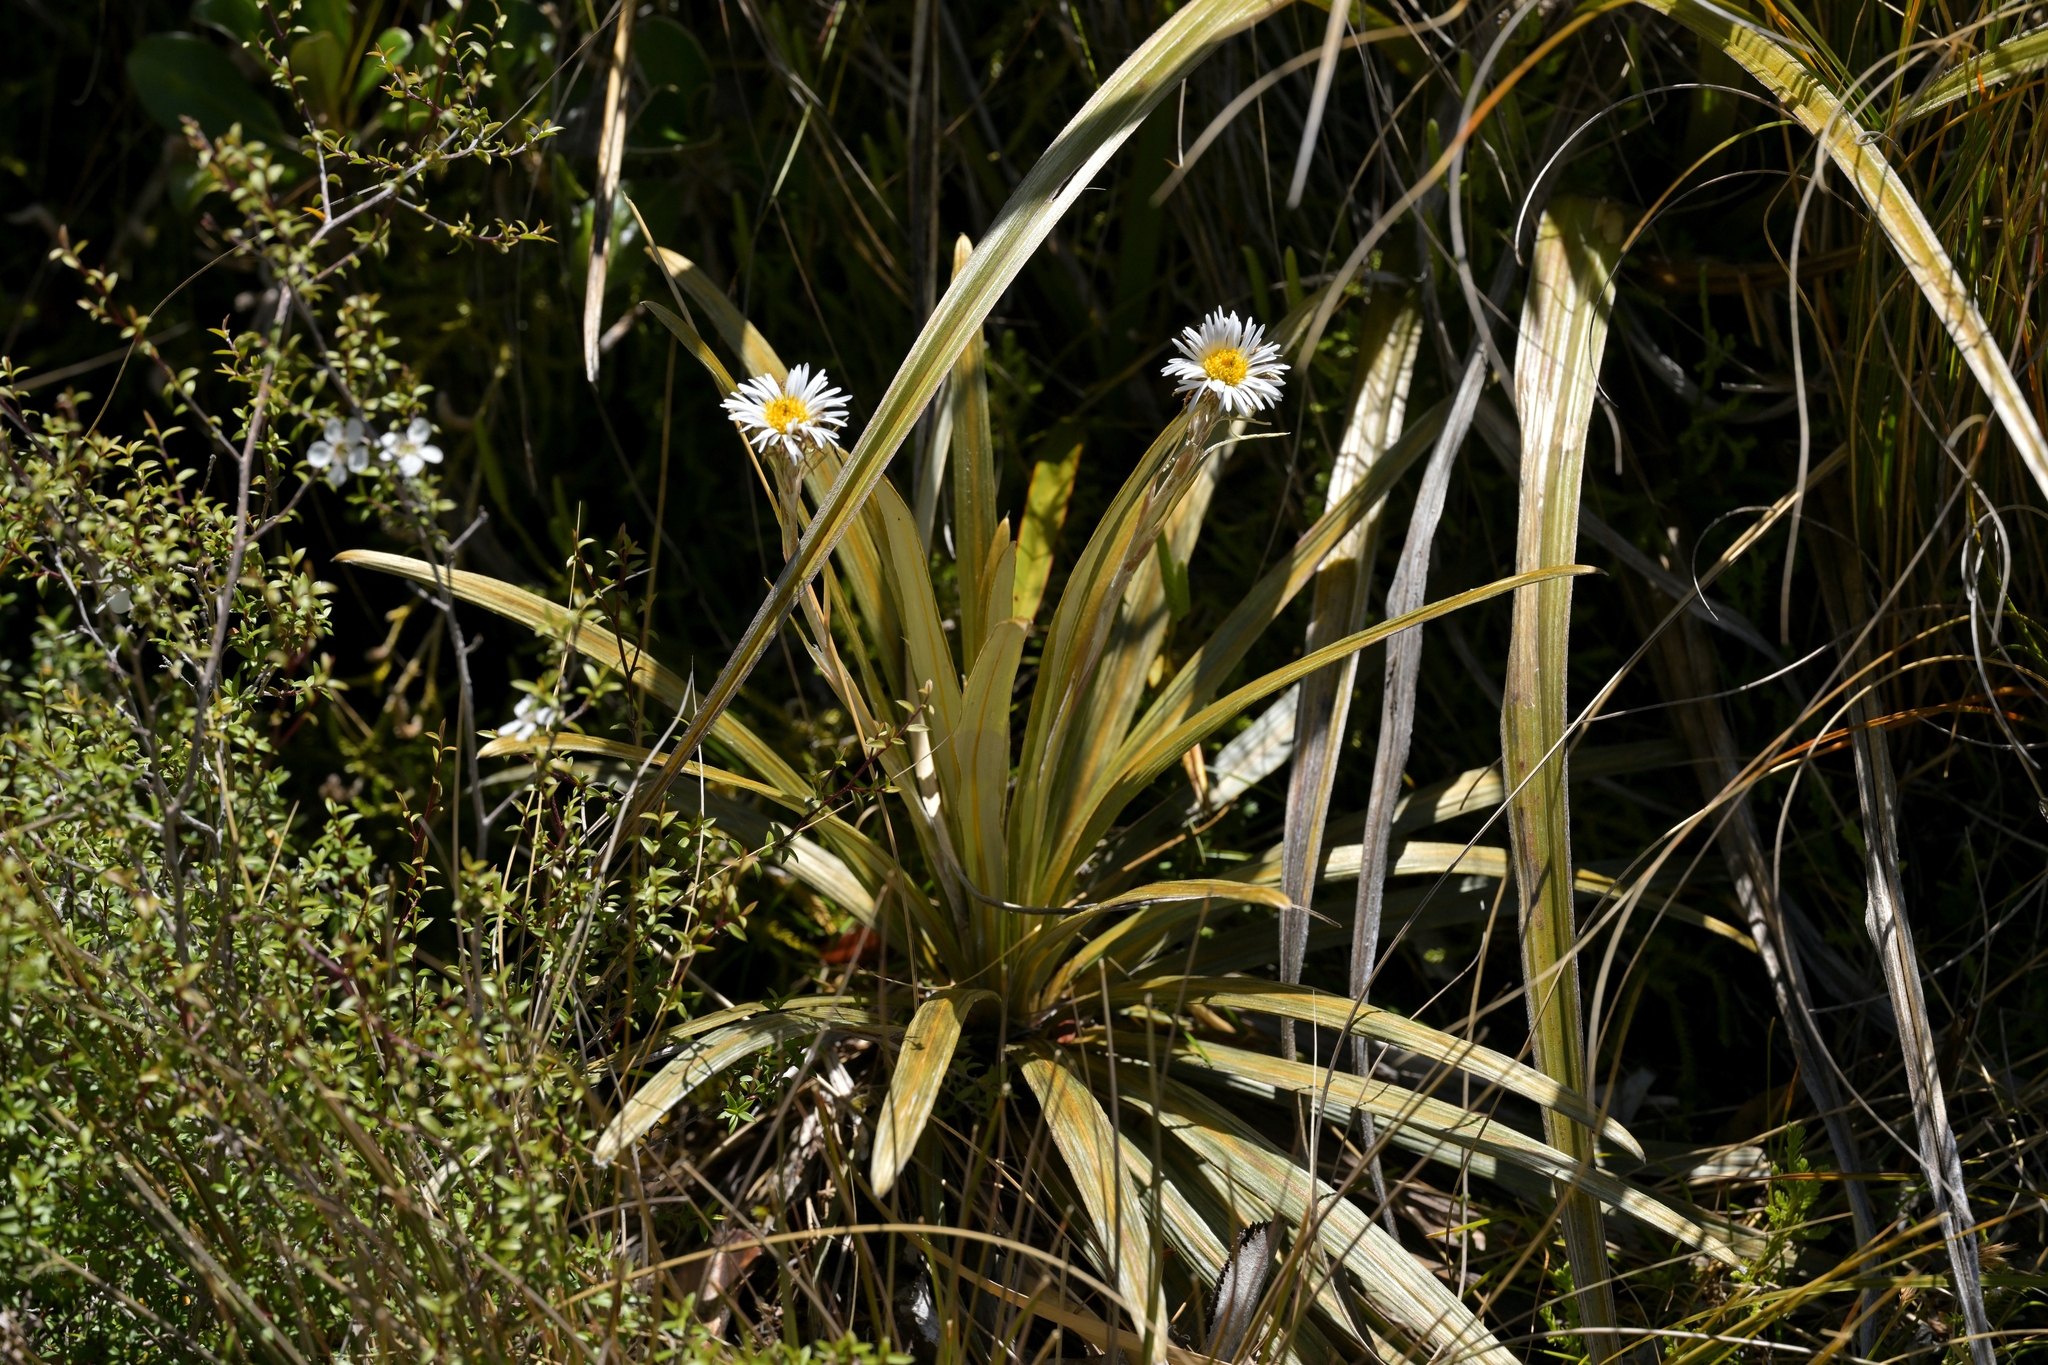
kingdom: Plantae
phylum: Tracheophyta
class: Magnoliopsida
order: Asterales
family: Asteraceae
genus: Celmisia
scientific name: Celmisia armstrongii
